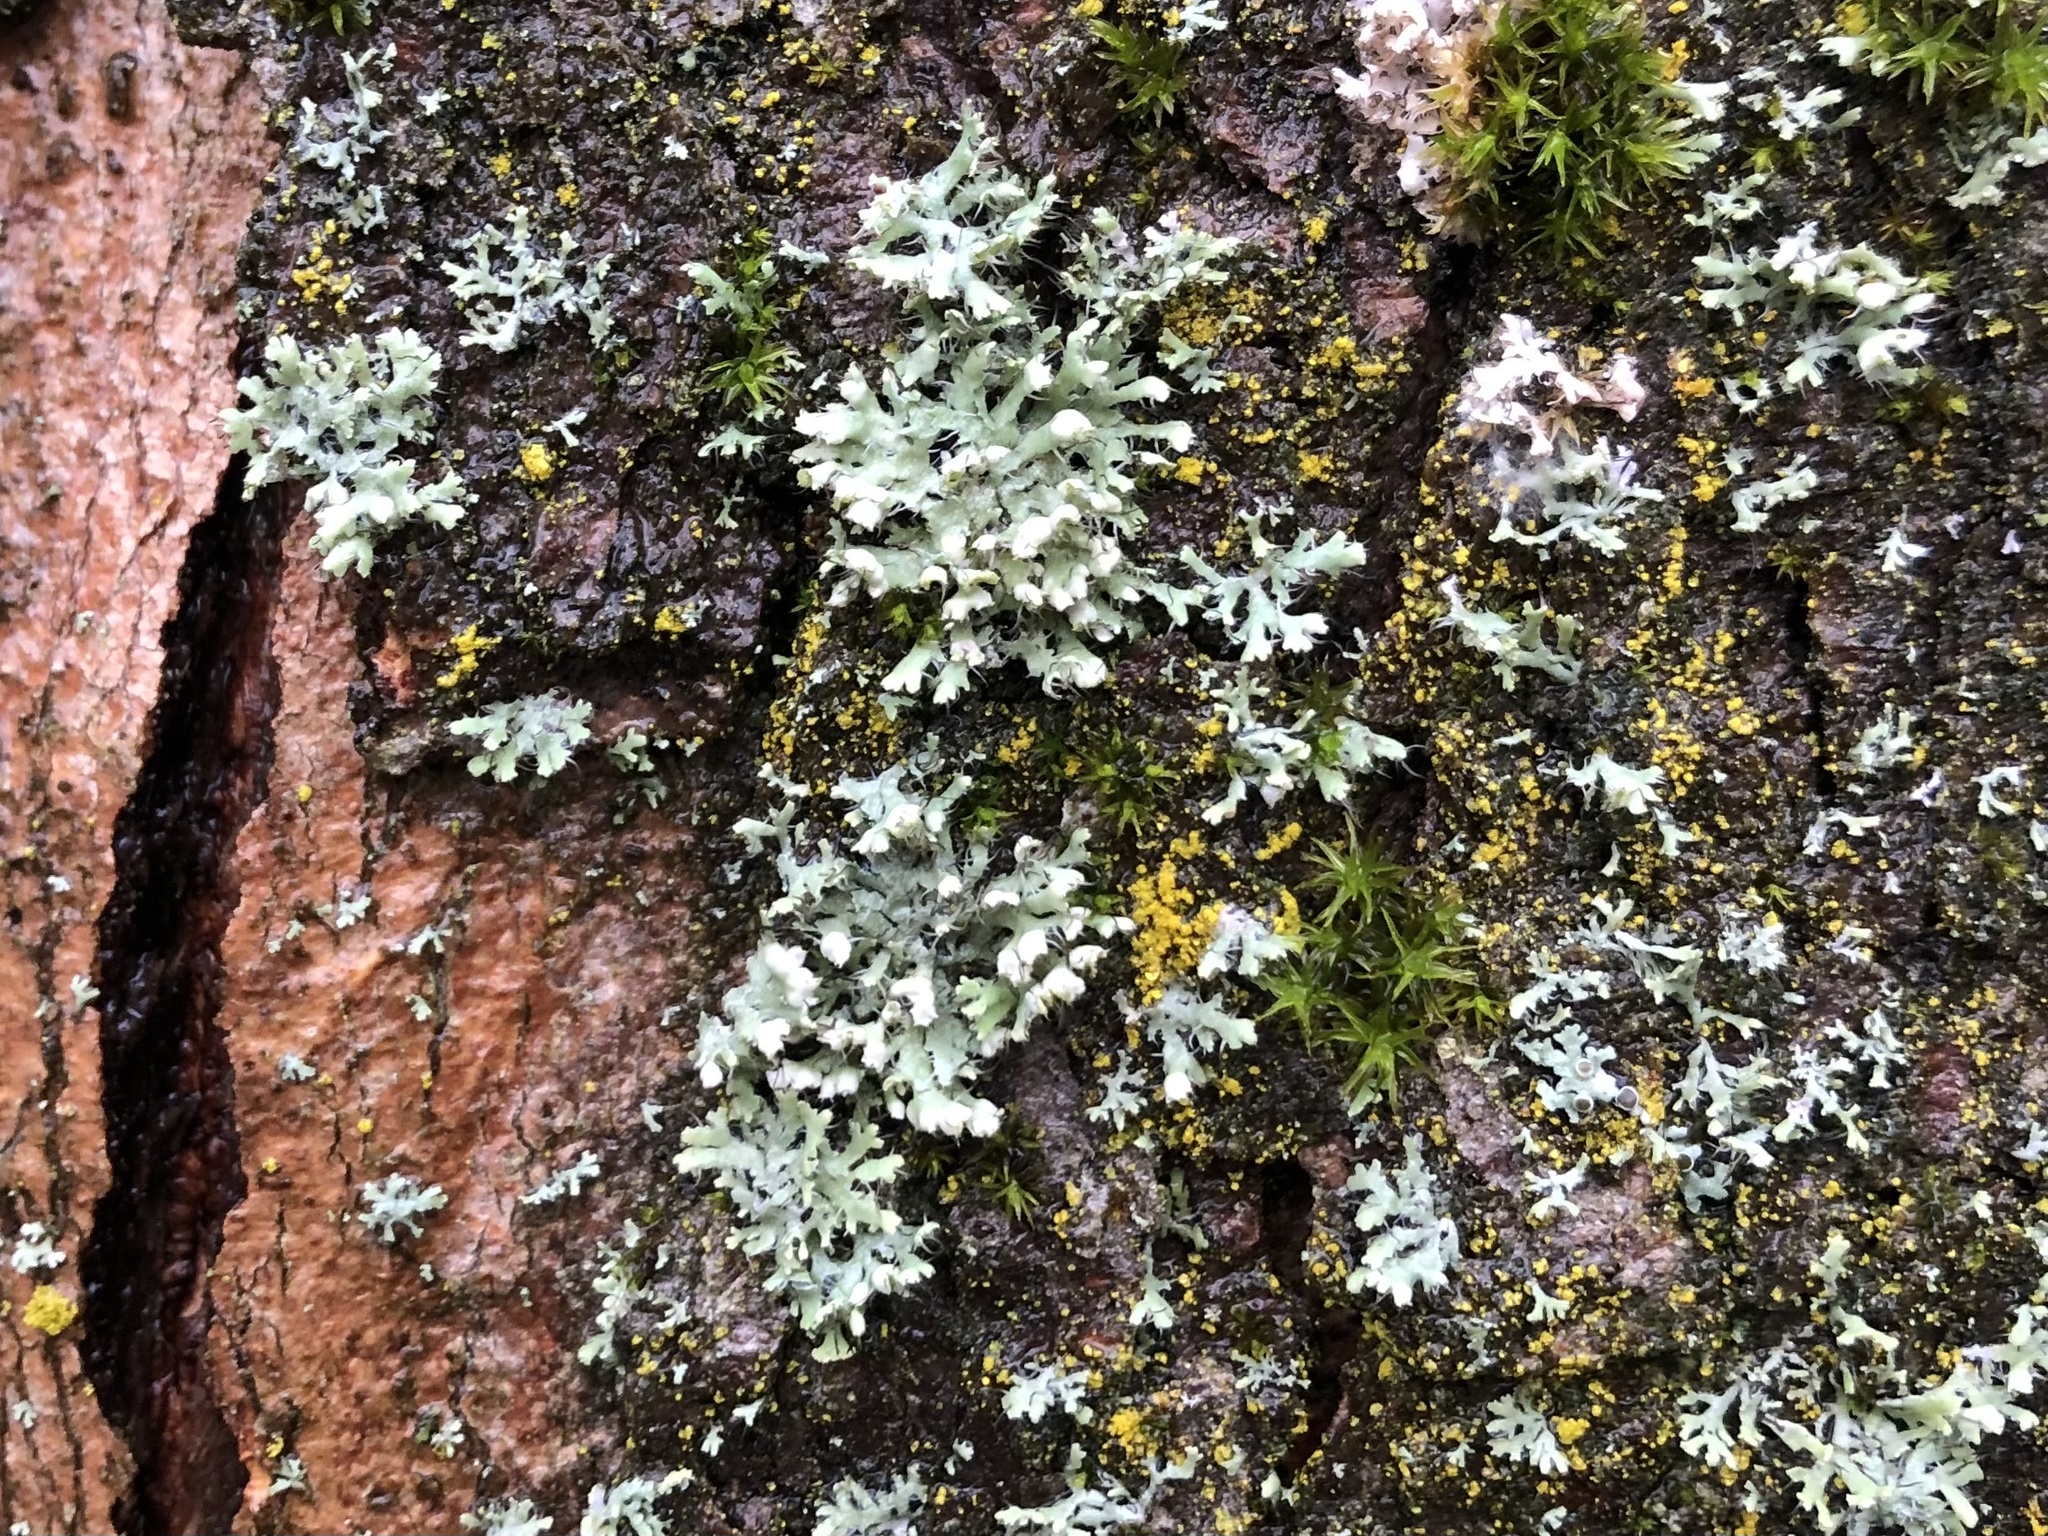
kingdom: Fungi
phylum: Ascomycota
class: Lecanoromycetes
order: Caliciales
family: Physciaceae
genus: Physcia
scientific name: Physcia adscendens
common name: Hooded rosette lichen
